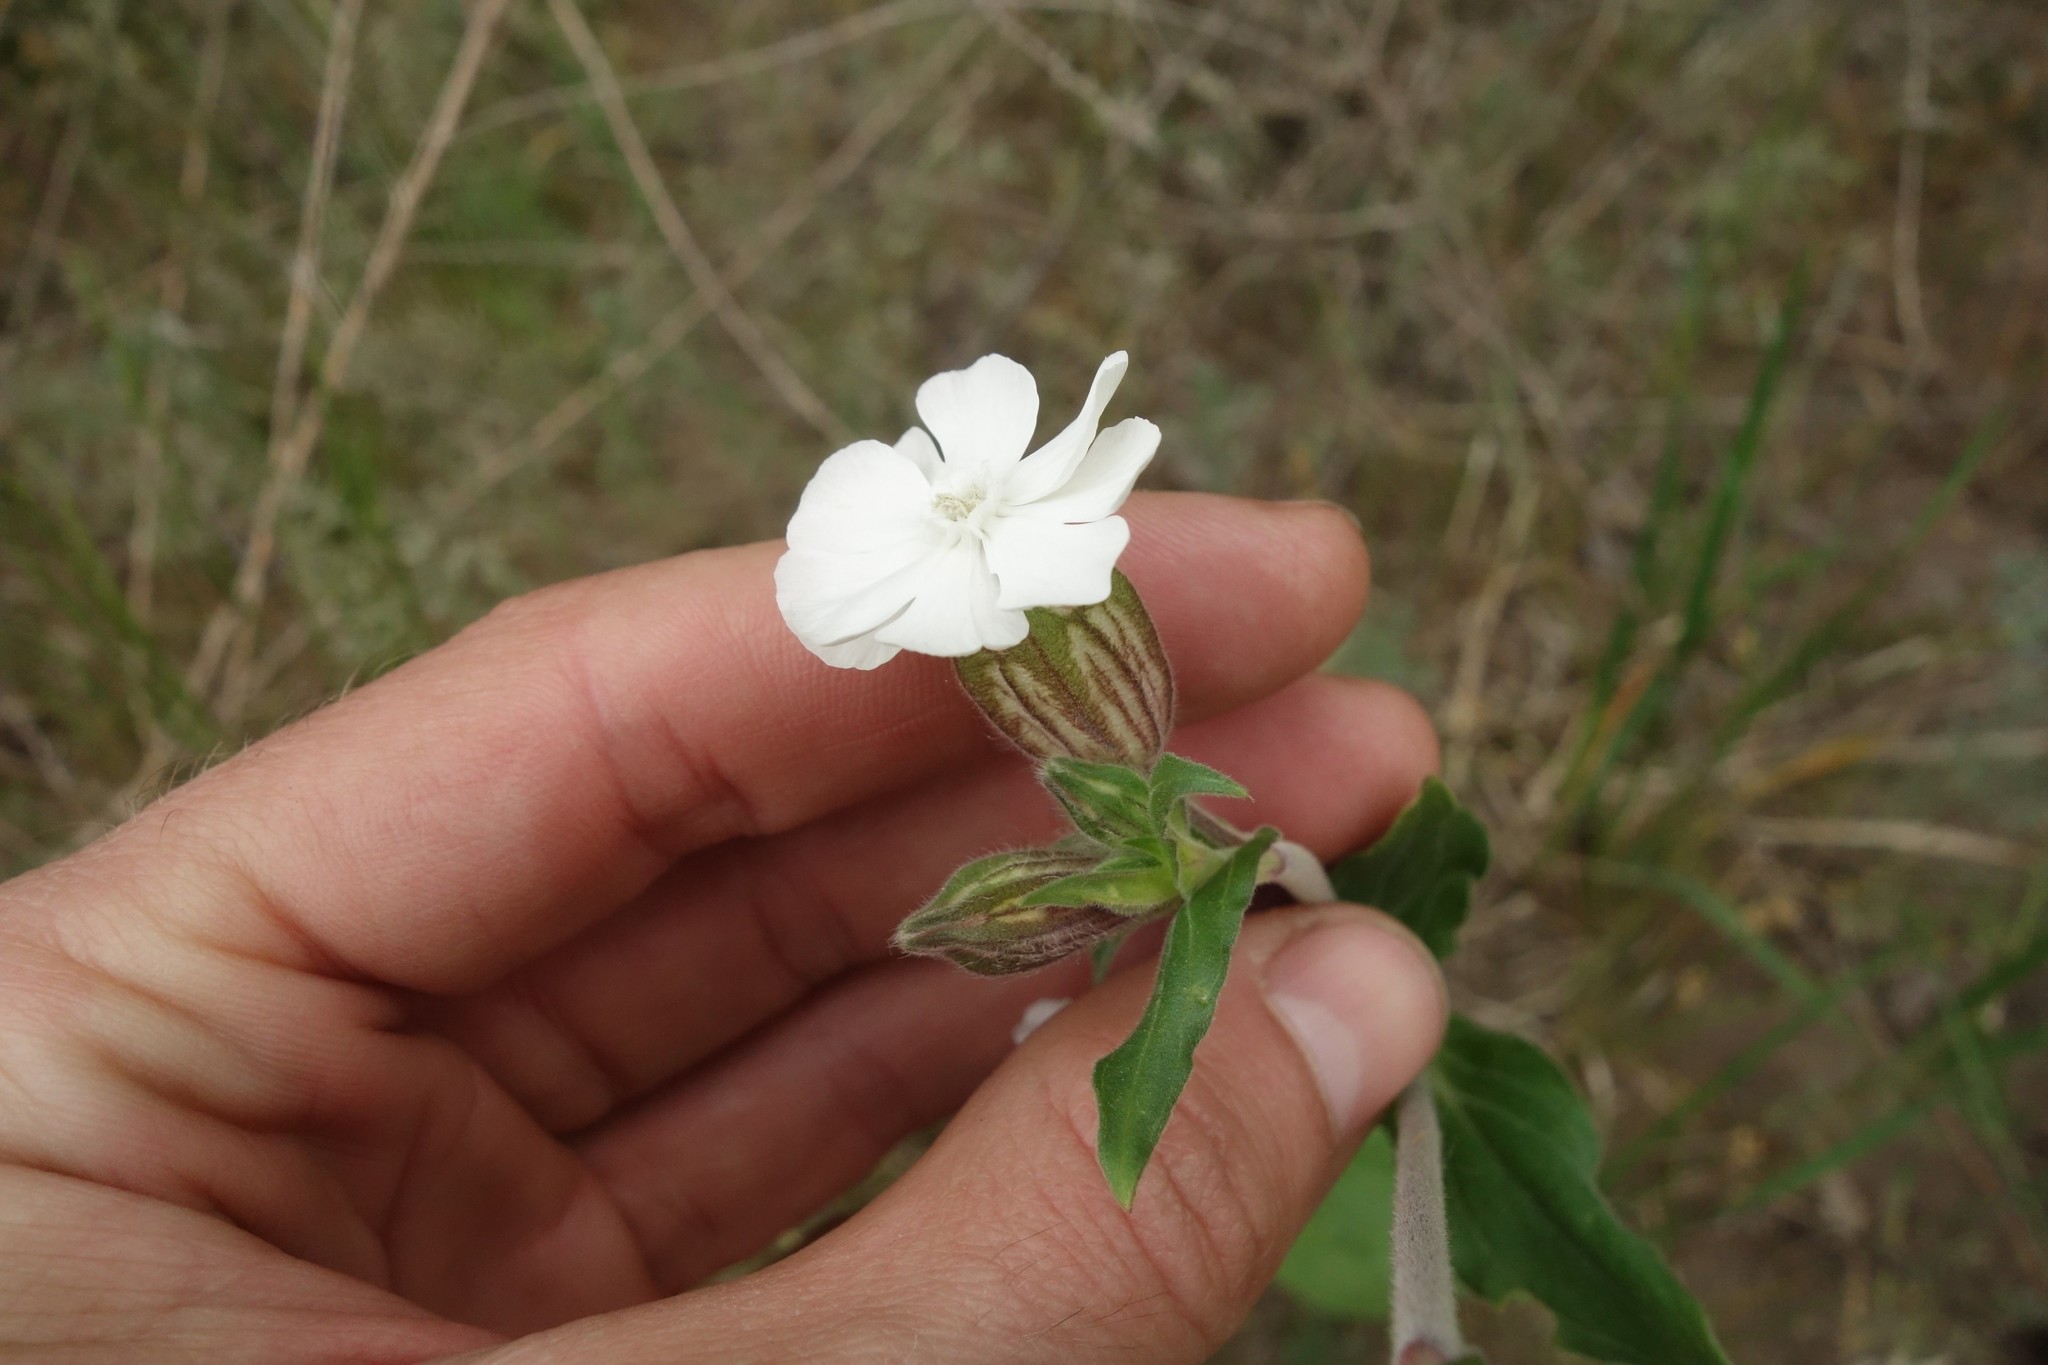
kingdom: Plantae
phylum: Tracheophyta
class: Magnoliopsida
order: Caryophyllales
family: Caryophyllaceae
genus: Silene
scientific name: Silene latifolia
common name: White campion
